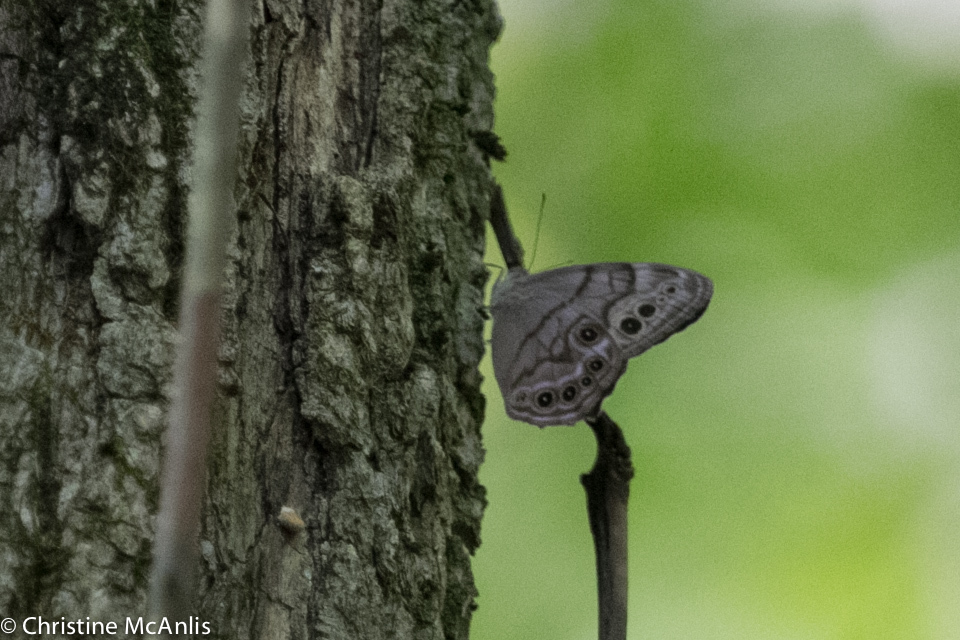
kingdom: Animalia
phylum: Arthropoda
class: Insecta
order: Lepidoptera
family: Nymphalidae
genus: Lethe
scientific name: Lethe anthedon
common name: Northern pearly-eye
